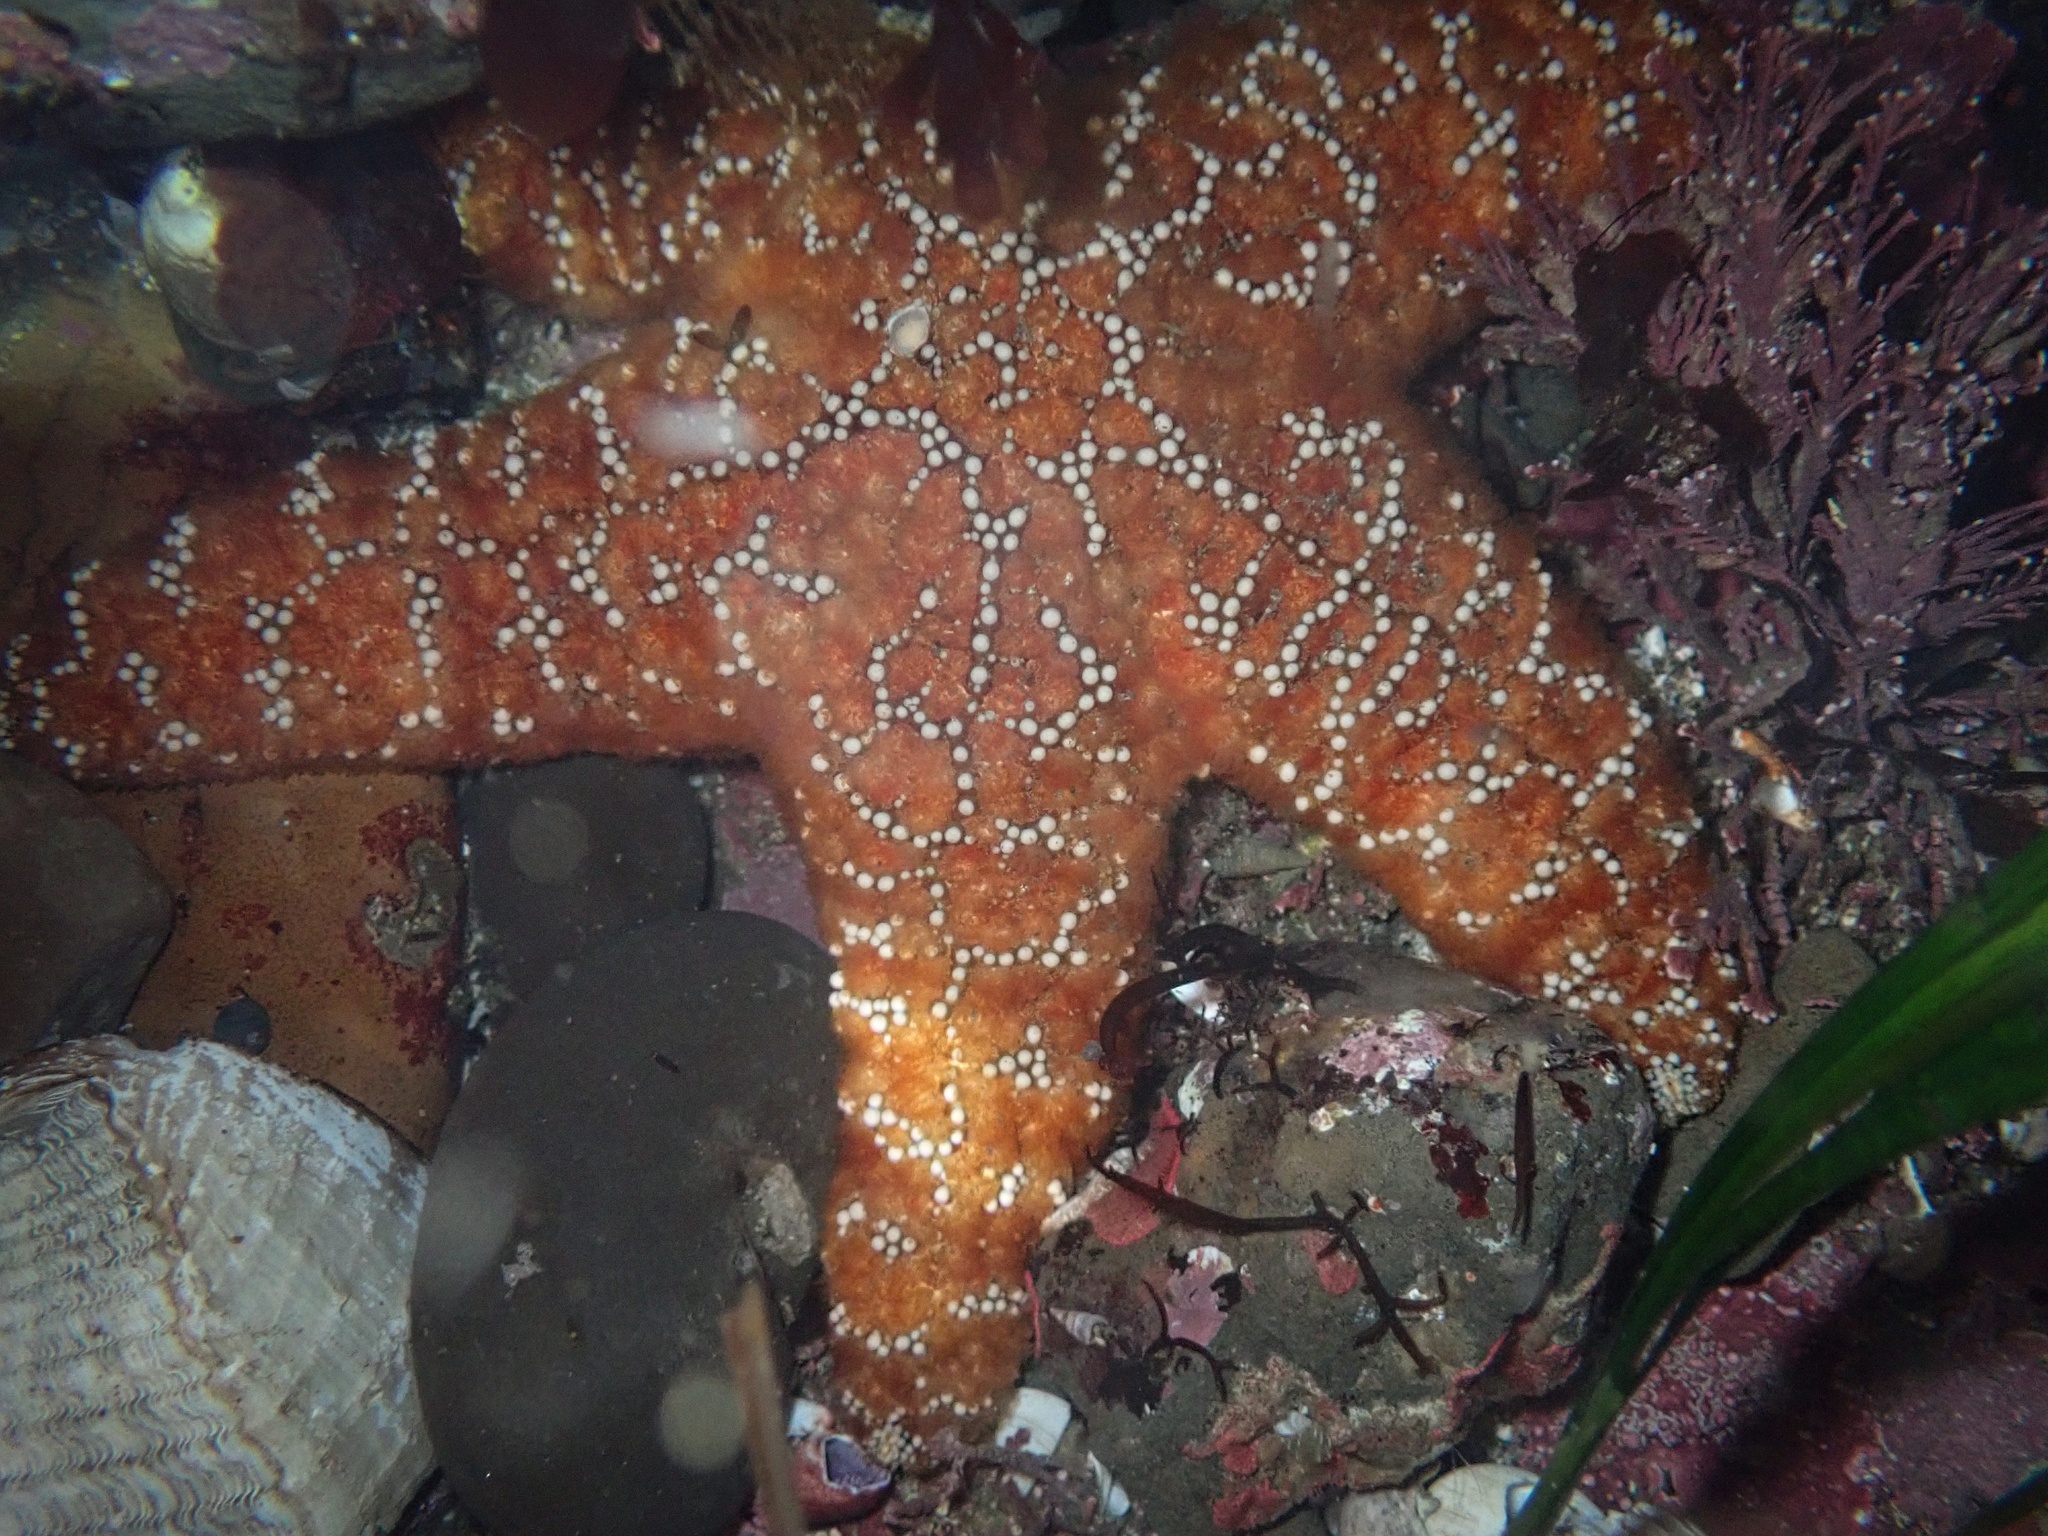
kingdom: Animalia
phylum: Echinodermata
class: Asteroidea
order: Forcipulatida
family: Asteriidae
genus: Pisaster
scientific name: Pisaster ochraceus
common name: Ochre stars
